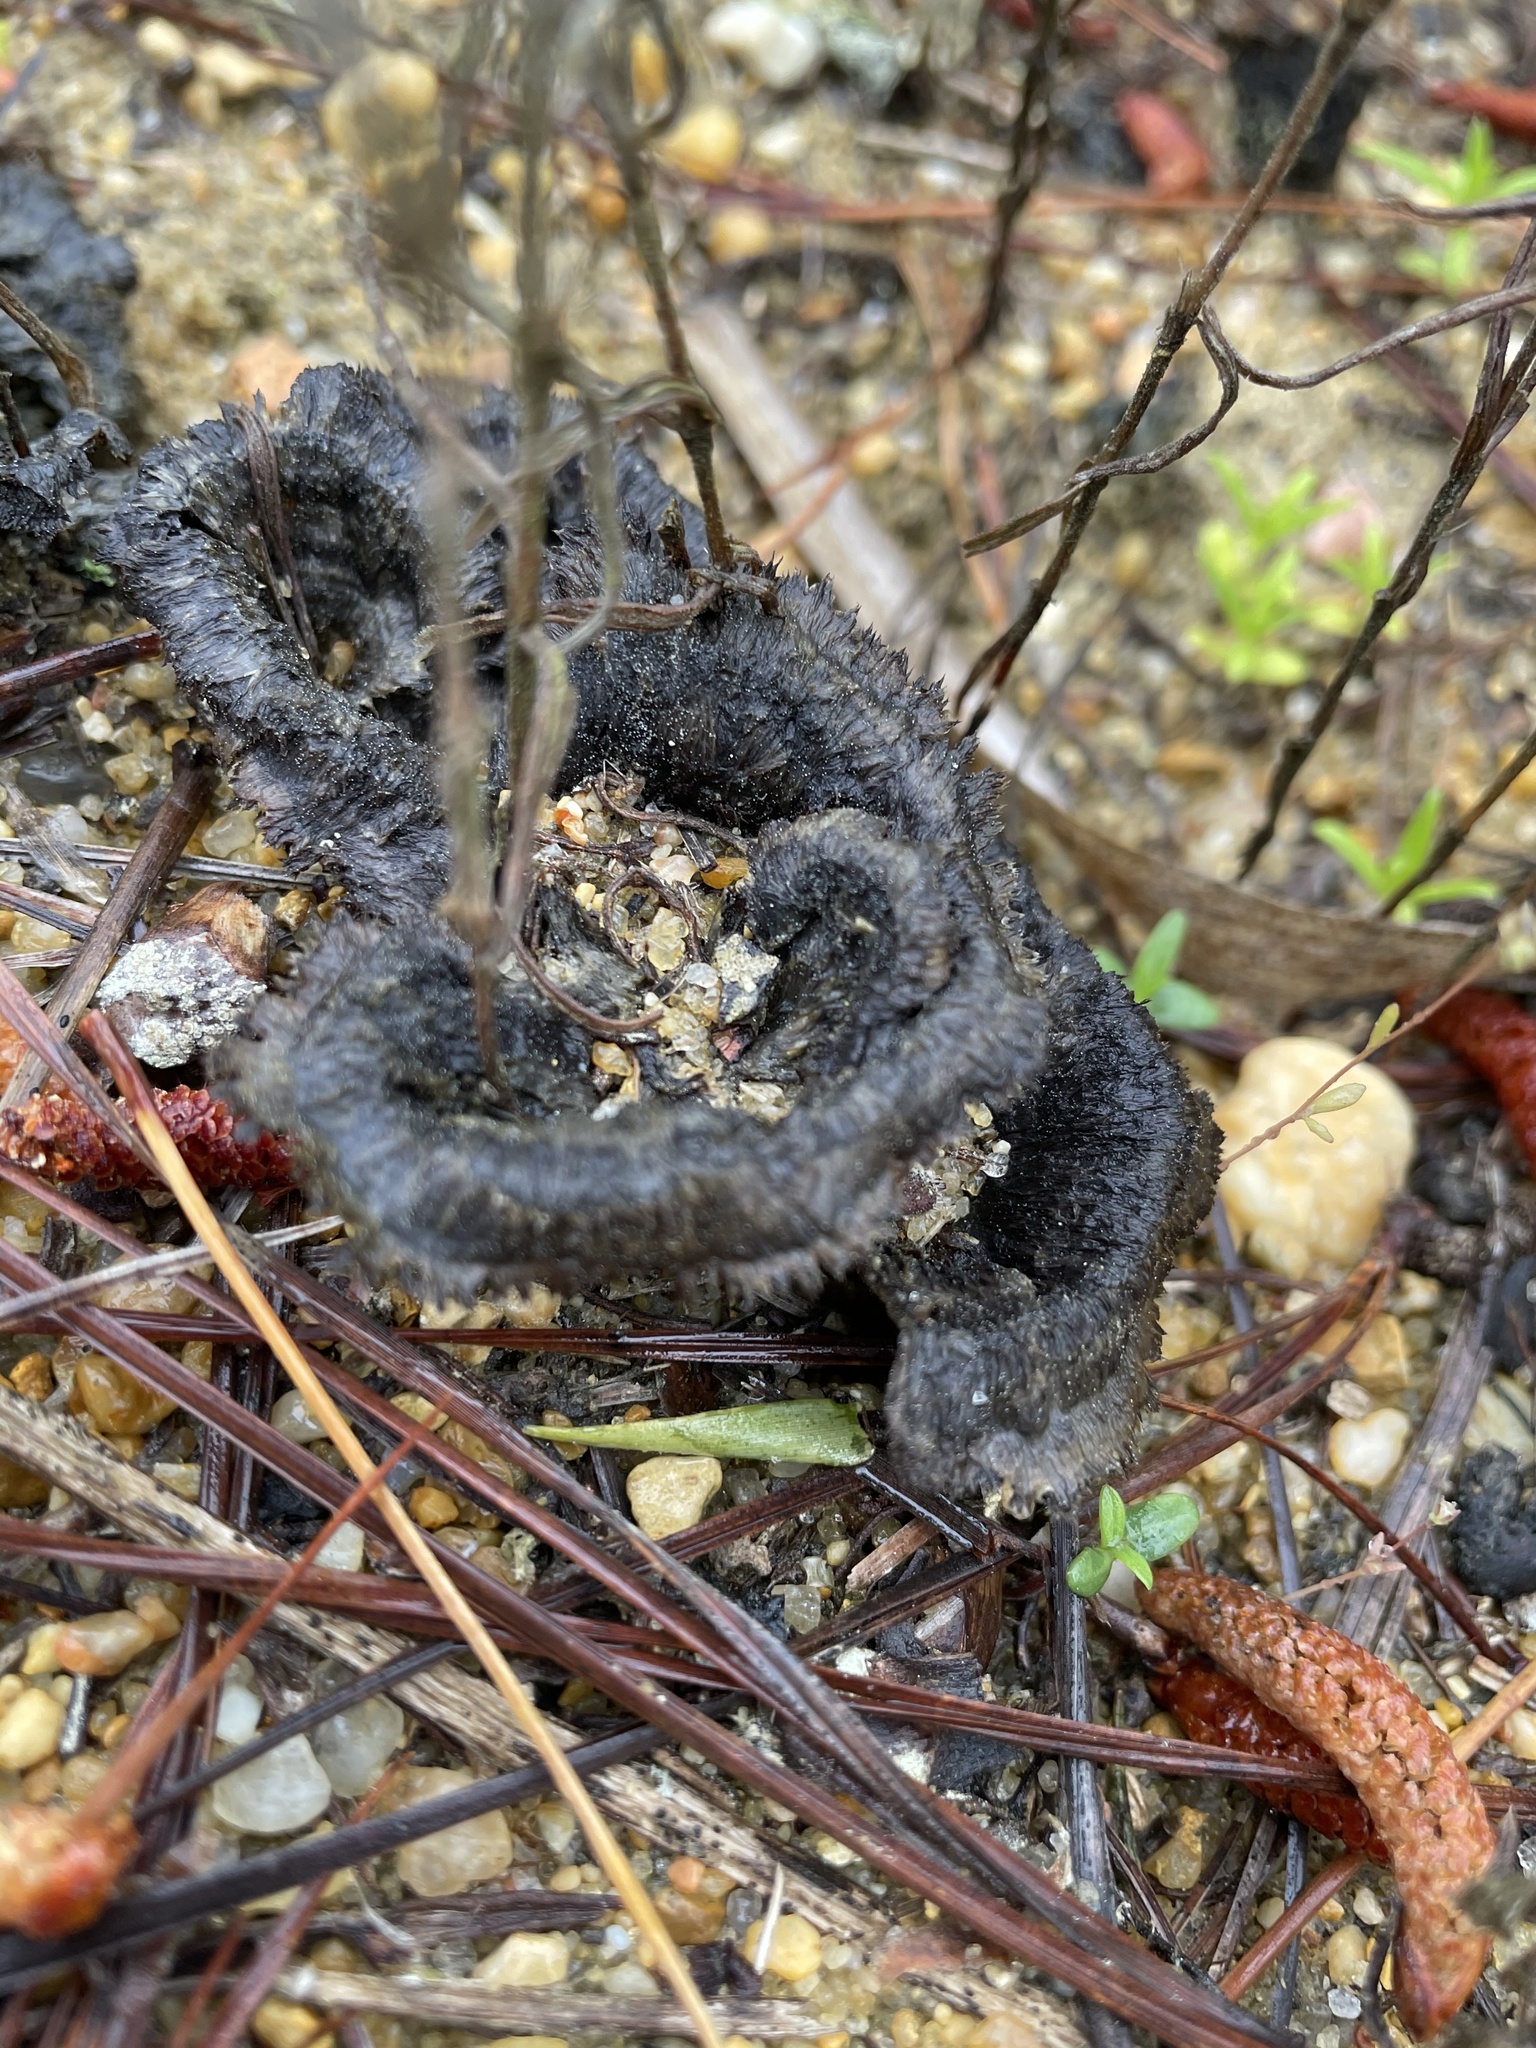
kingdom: Fungi
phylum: Basidiomycota
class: Agaricomycetes
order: Thelephorales
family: Thelephoraceae
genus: Thelephora
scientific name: Thelephora terrestris
